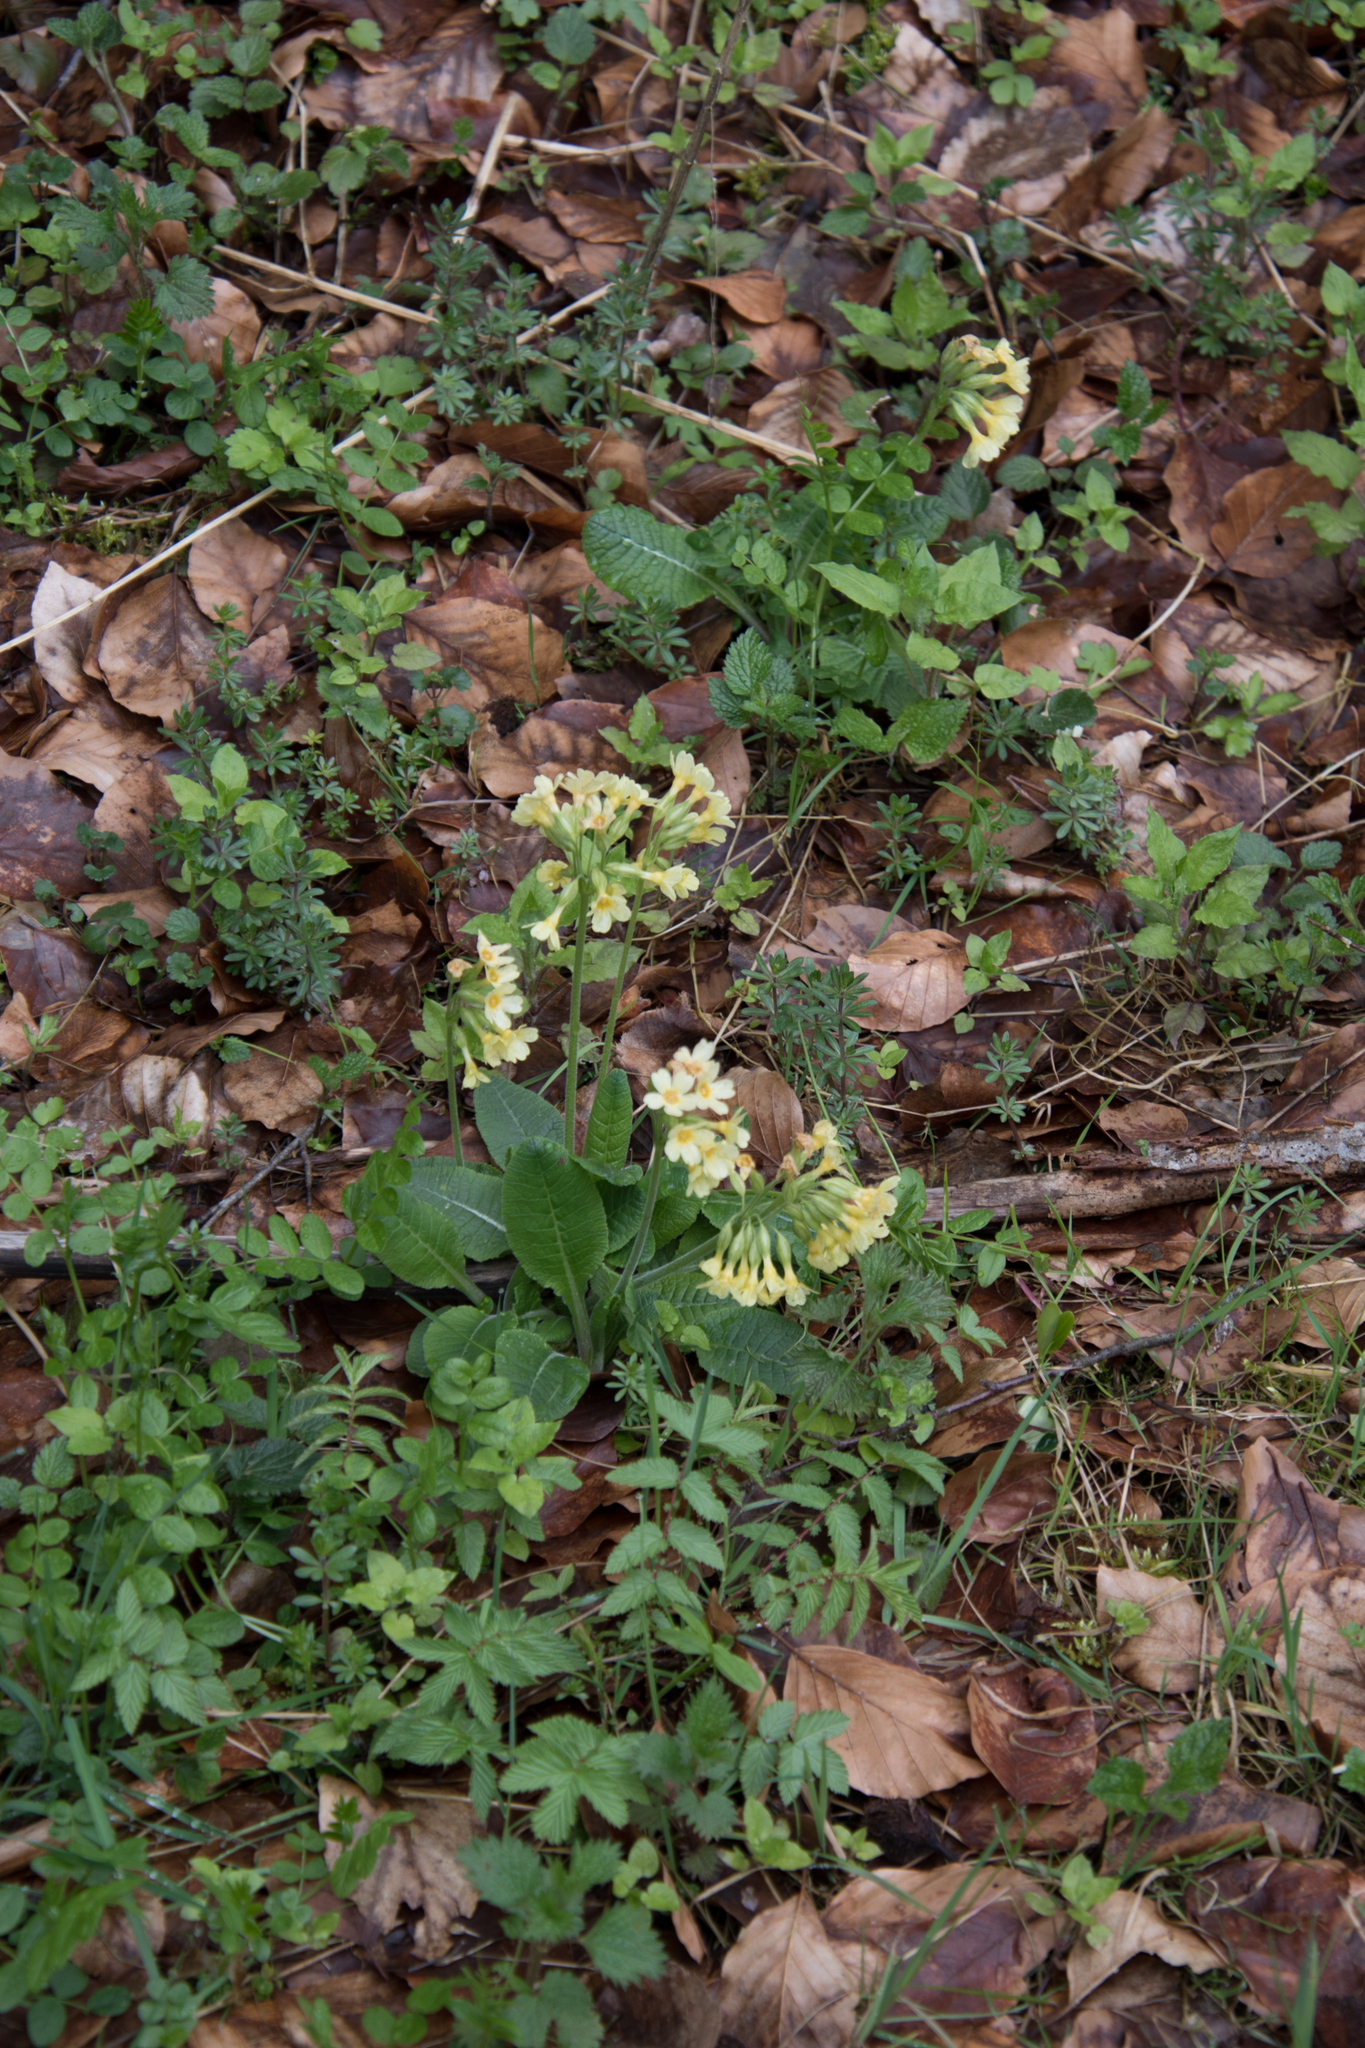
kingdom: Plantae
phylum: Tracheophyta
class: Magnoliopsida
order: Ericales
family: Primulaceae
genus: Primula
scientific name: Primula elatior
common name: Oxlip
